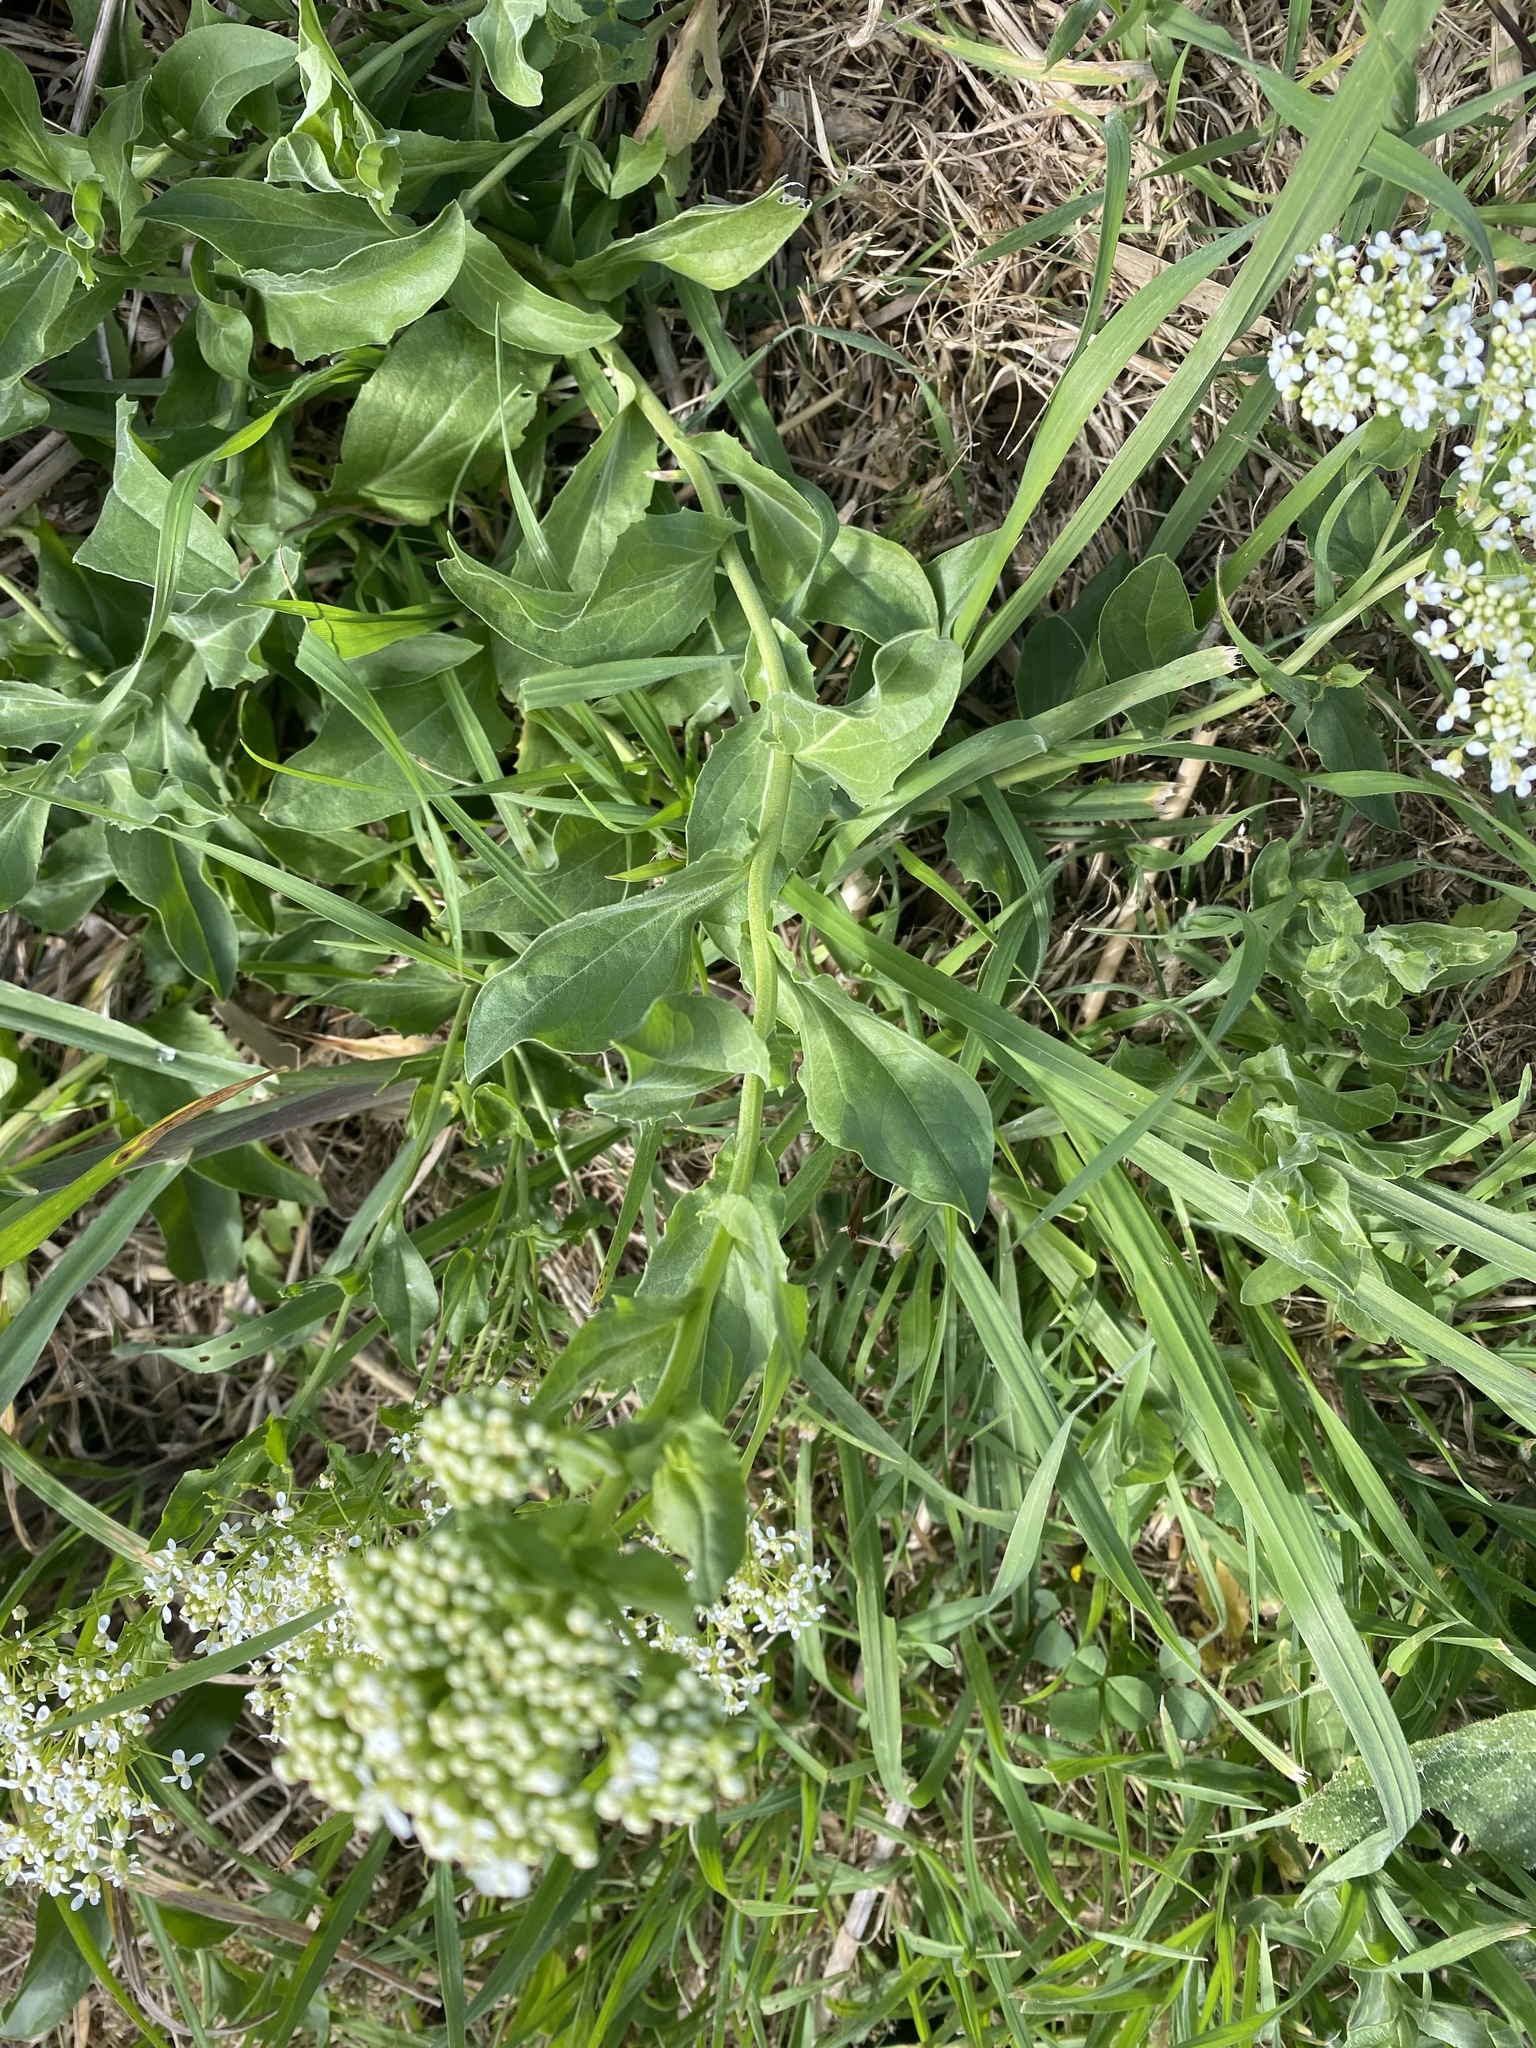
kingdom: Plantae
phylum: Tracheophyta
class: Magnoliopsida
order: Brassicales
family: Brassicaceae
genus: Lepidium
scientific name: Lepidium draba
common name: Hoary cress
